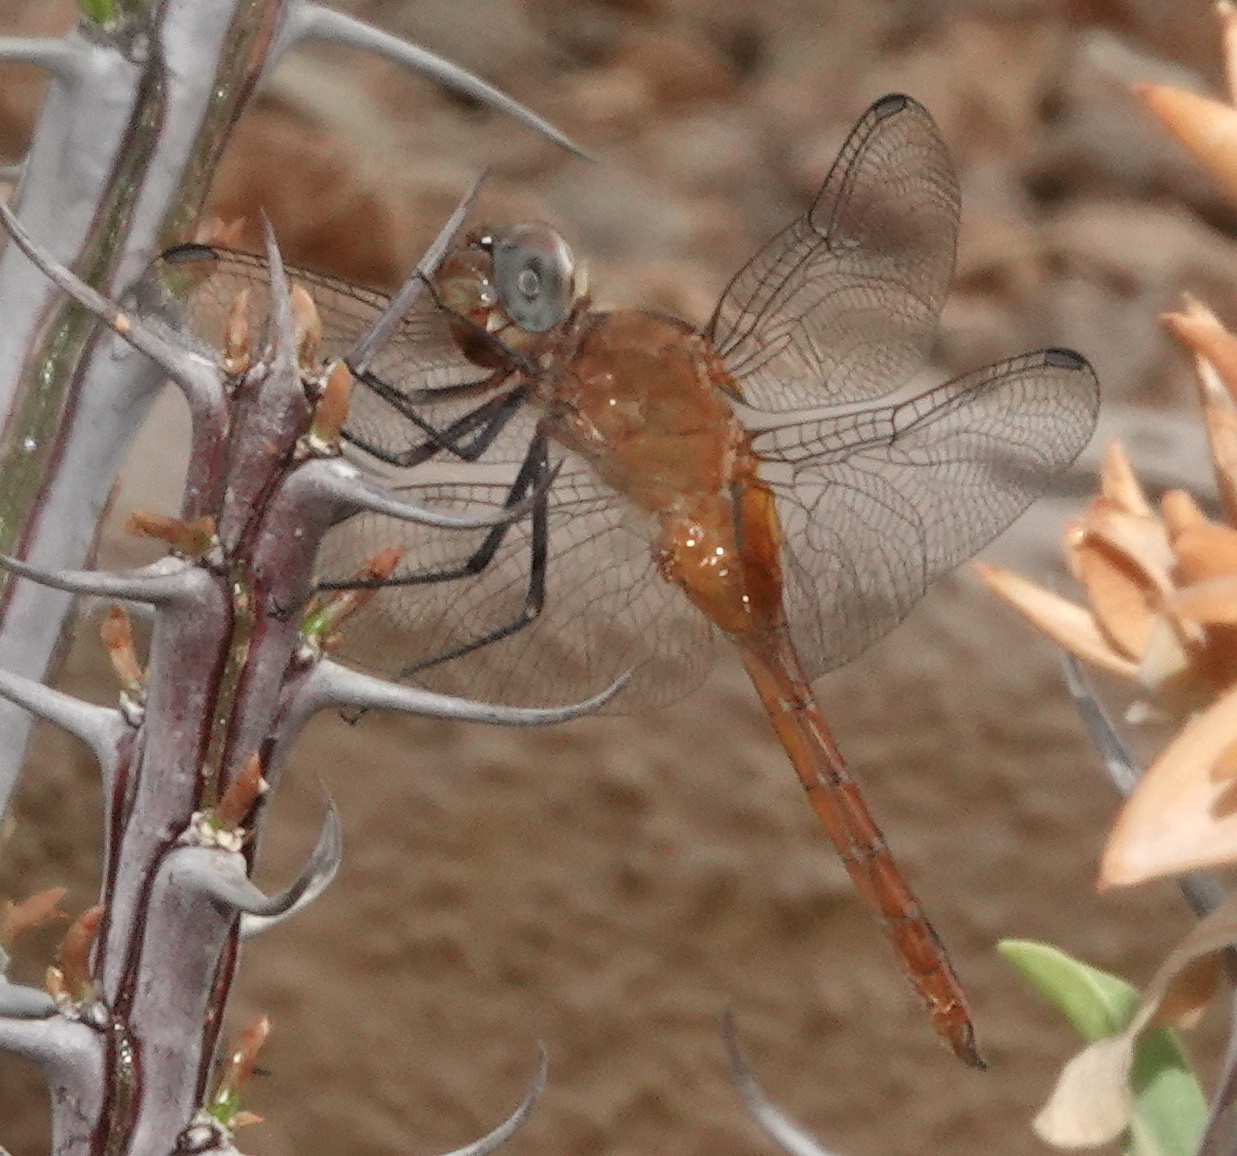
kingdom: Animalia
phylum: Arthropoda
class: Insecta
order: Odonata
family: Libellulidae
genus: Brachymesia
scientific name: Brachymesia furcata
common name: Red-taled pennant
